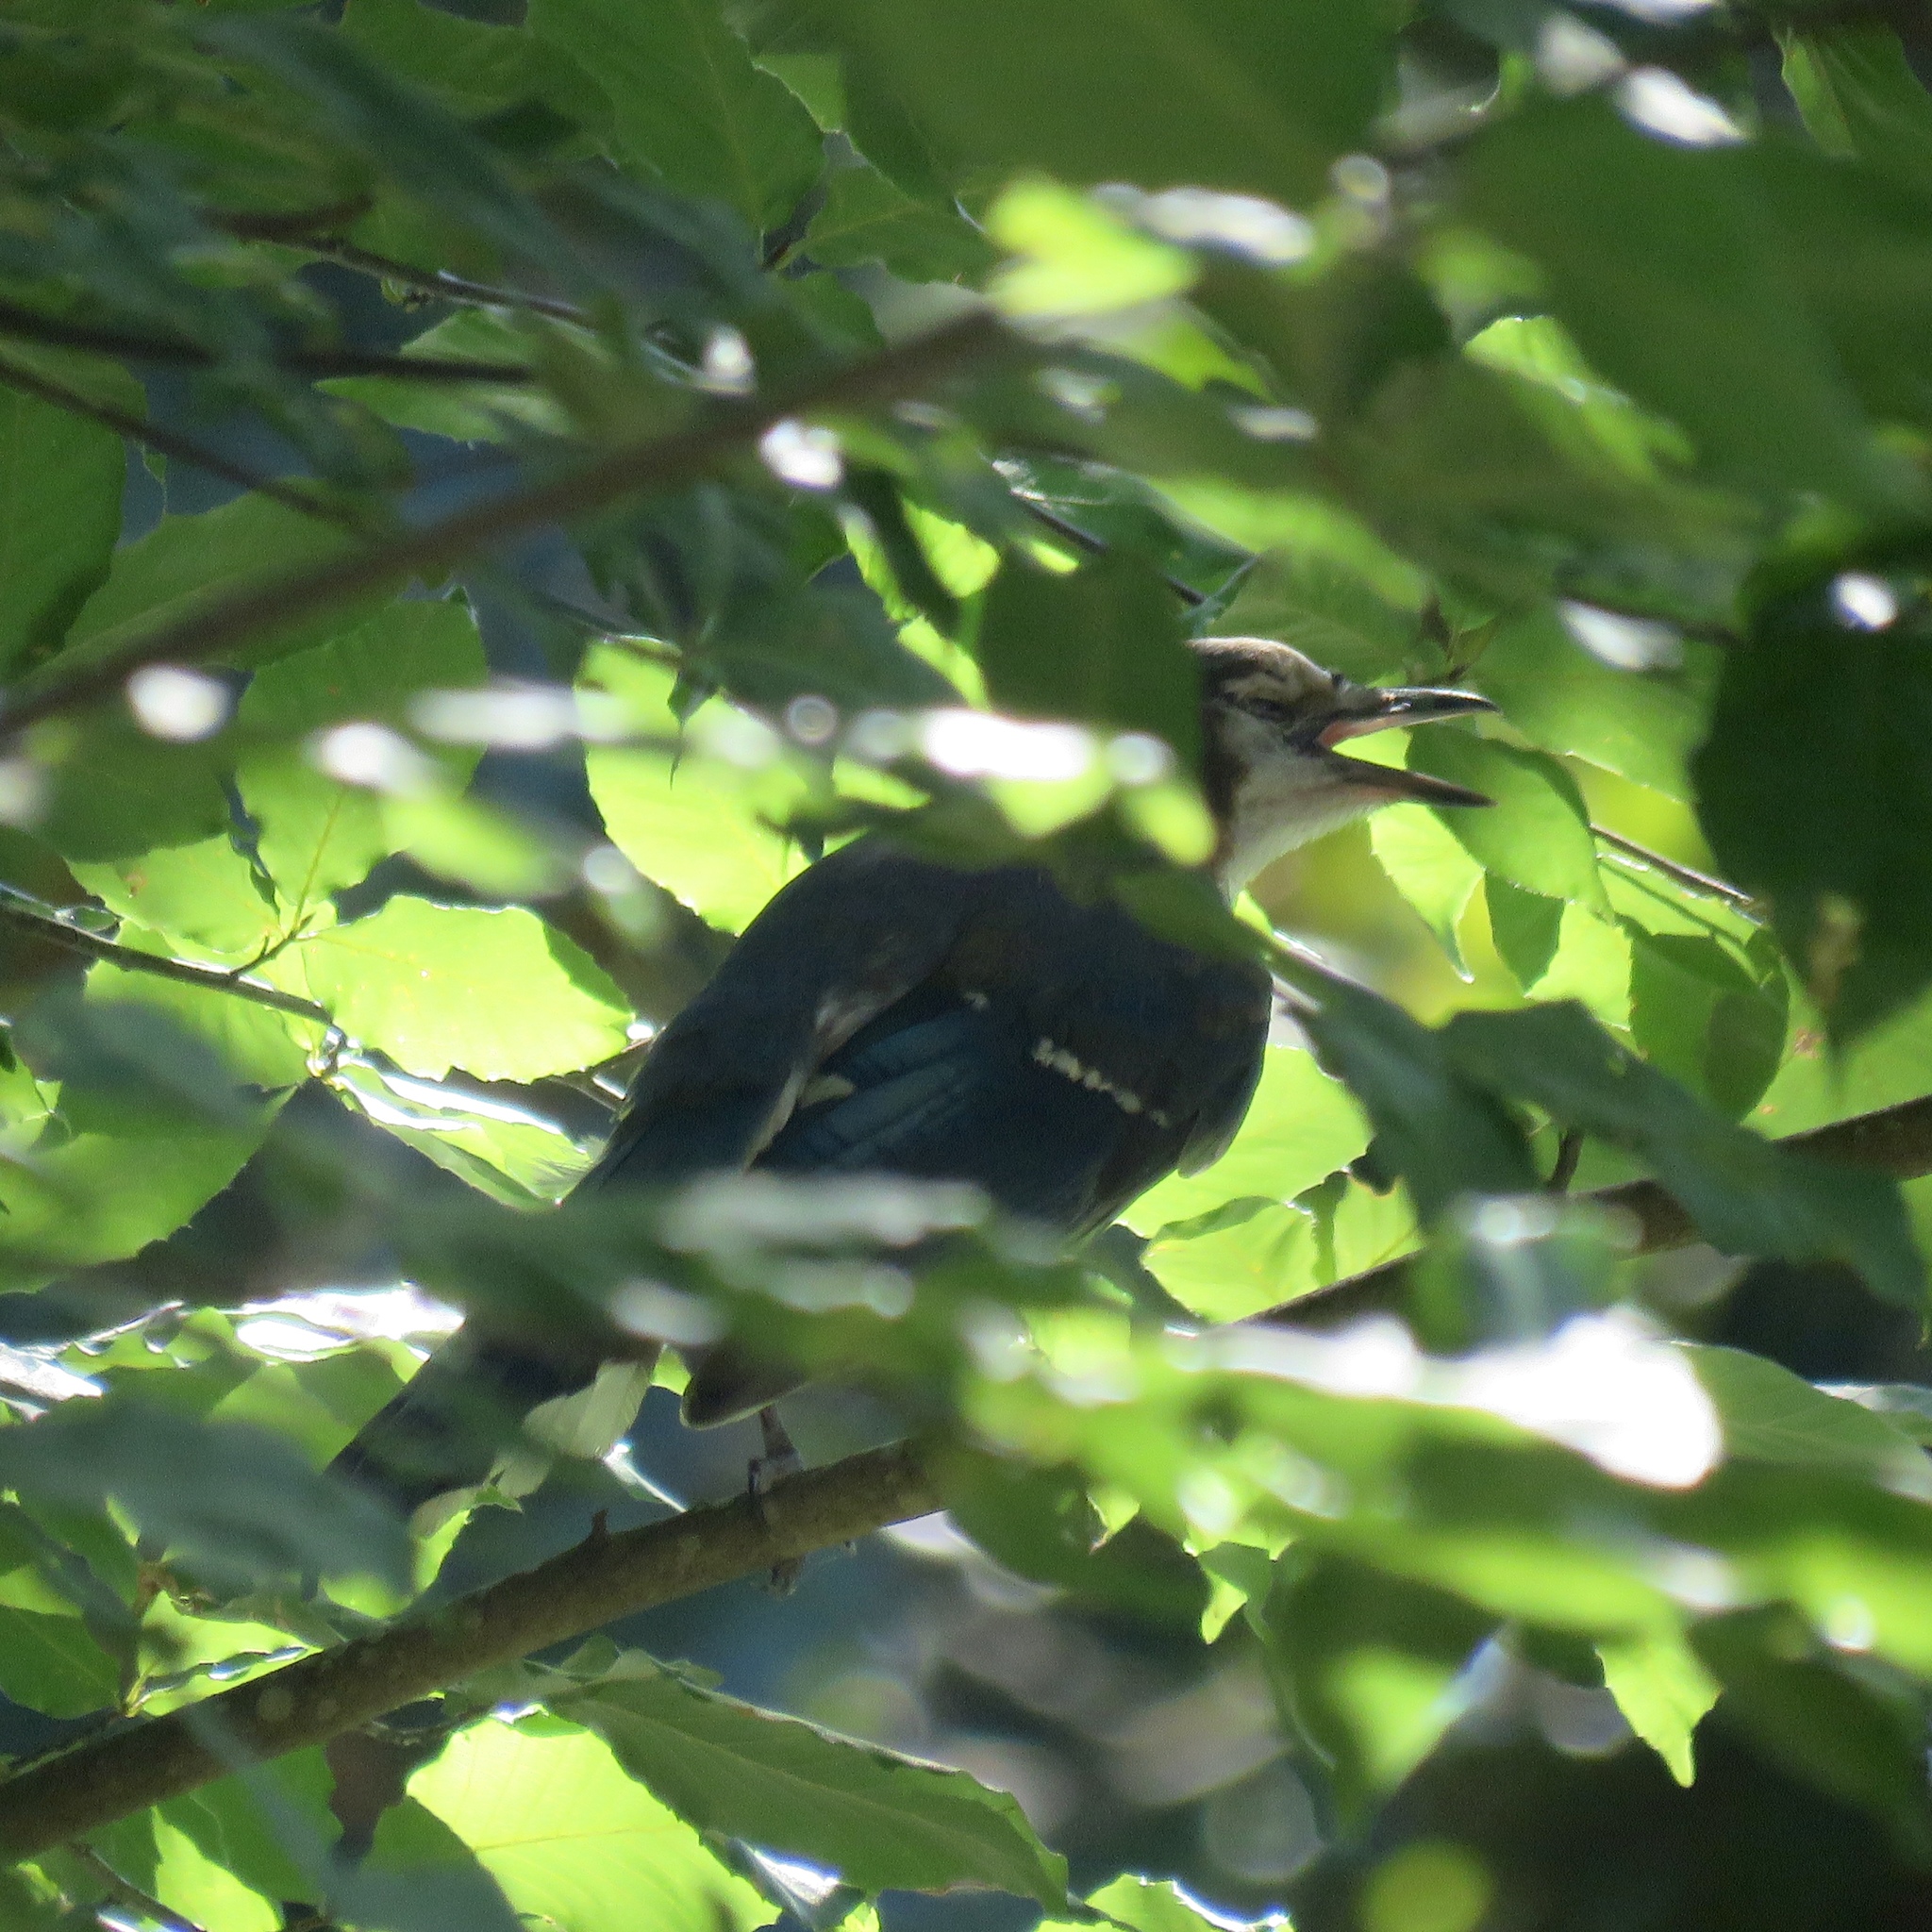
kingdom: Animalia
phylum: Chordata
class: Aves
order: Passeriformes
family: Corvidae
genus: Cyanocitta
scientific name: Cyanocitta cristata
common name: Blue jay
